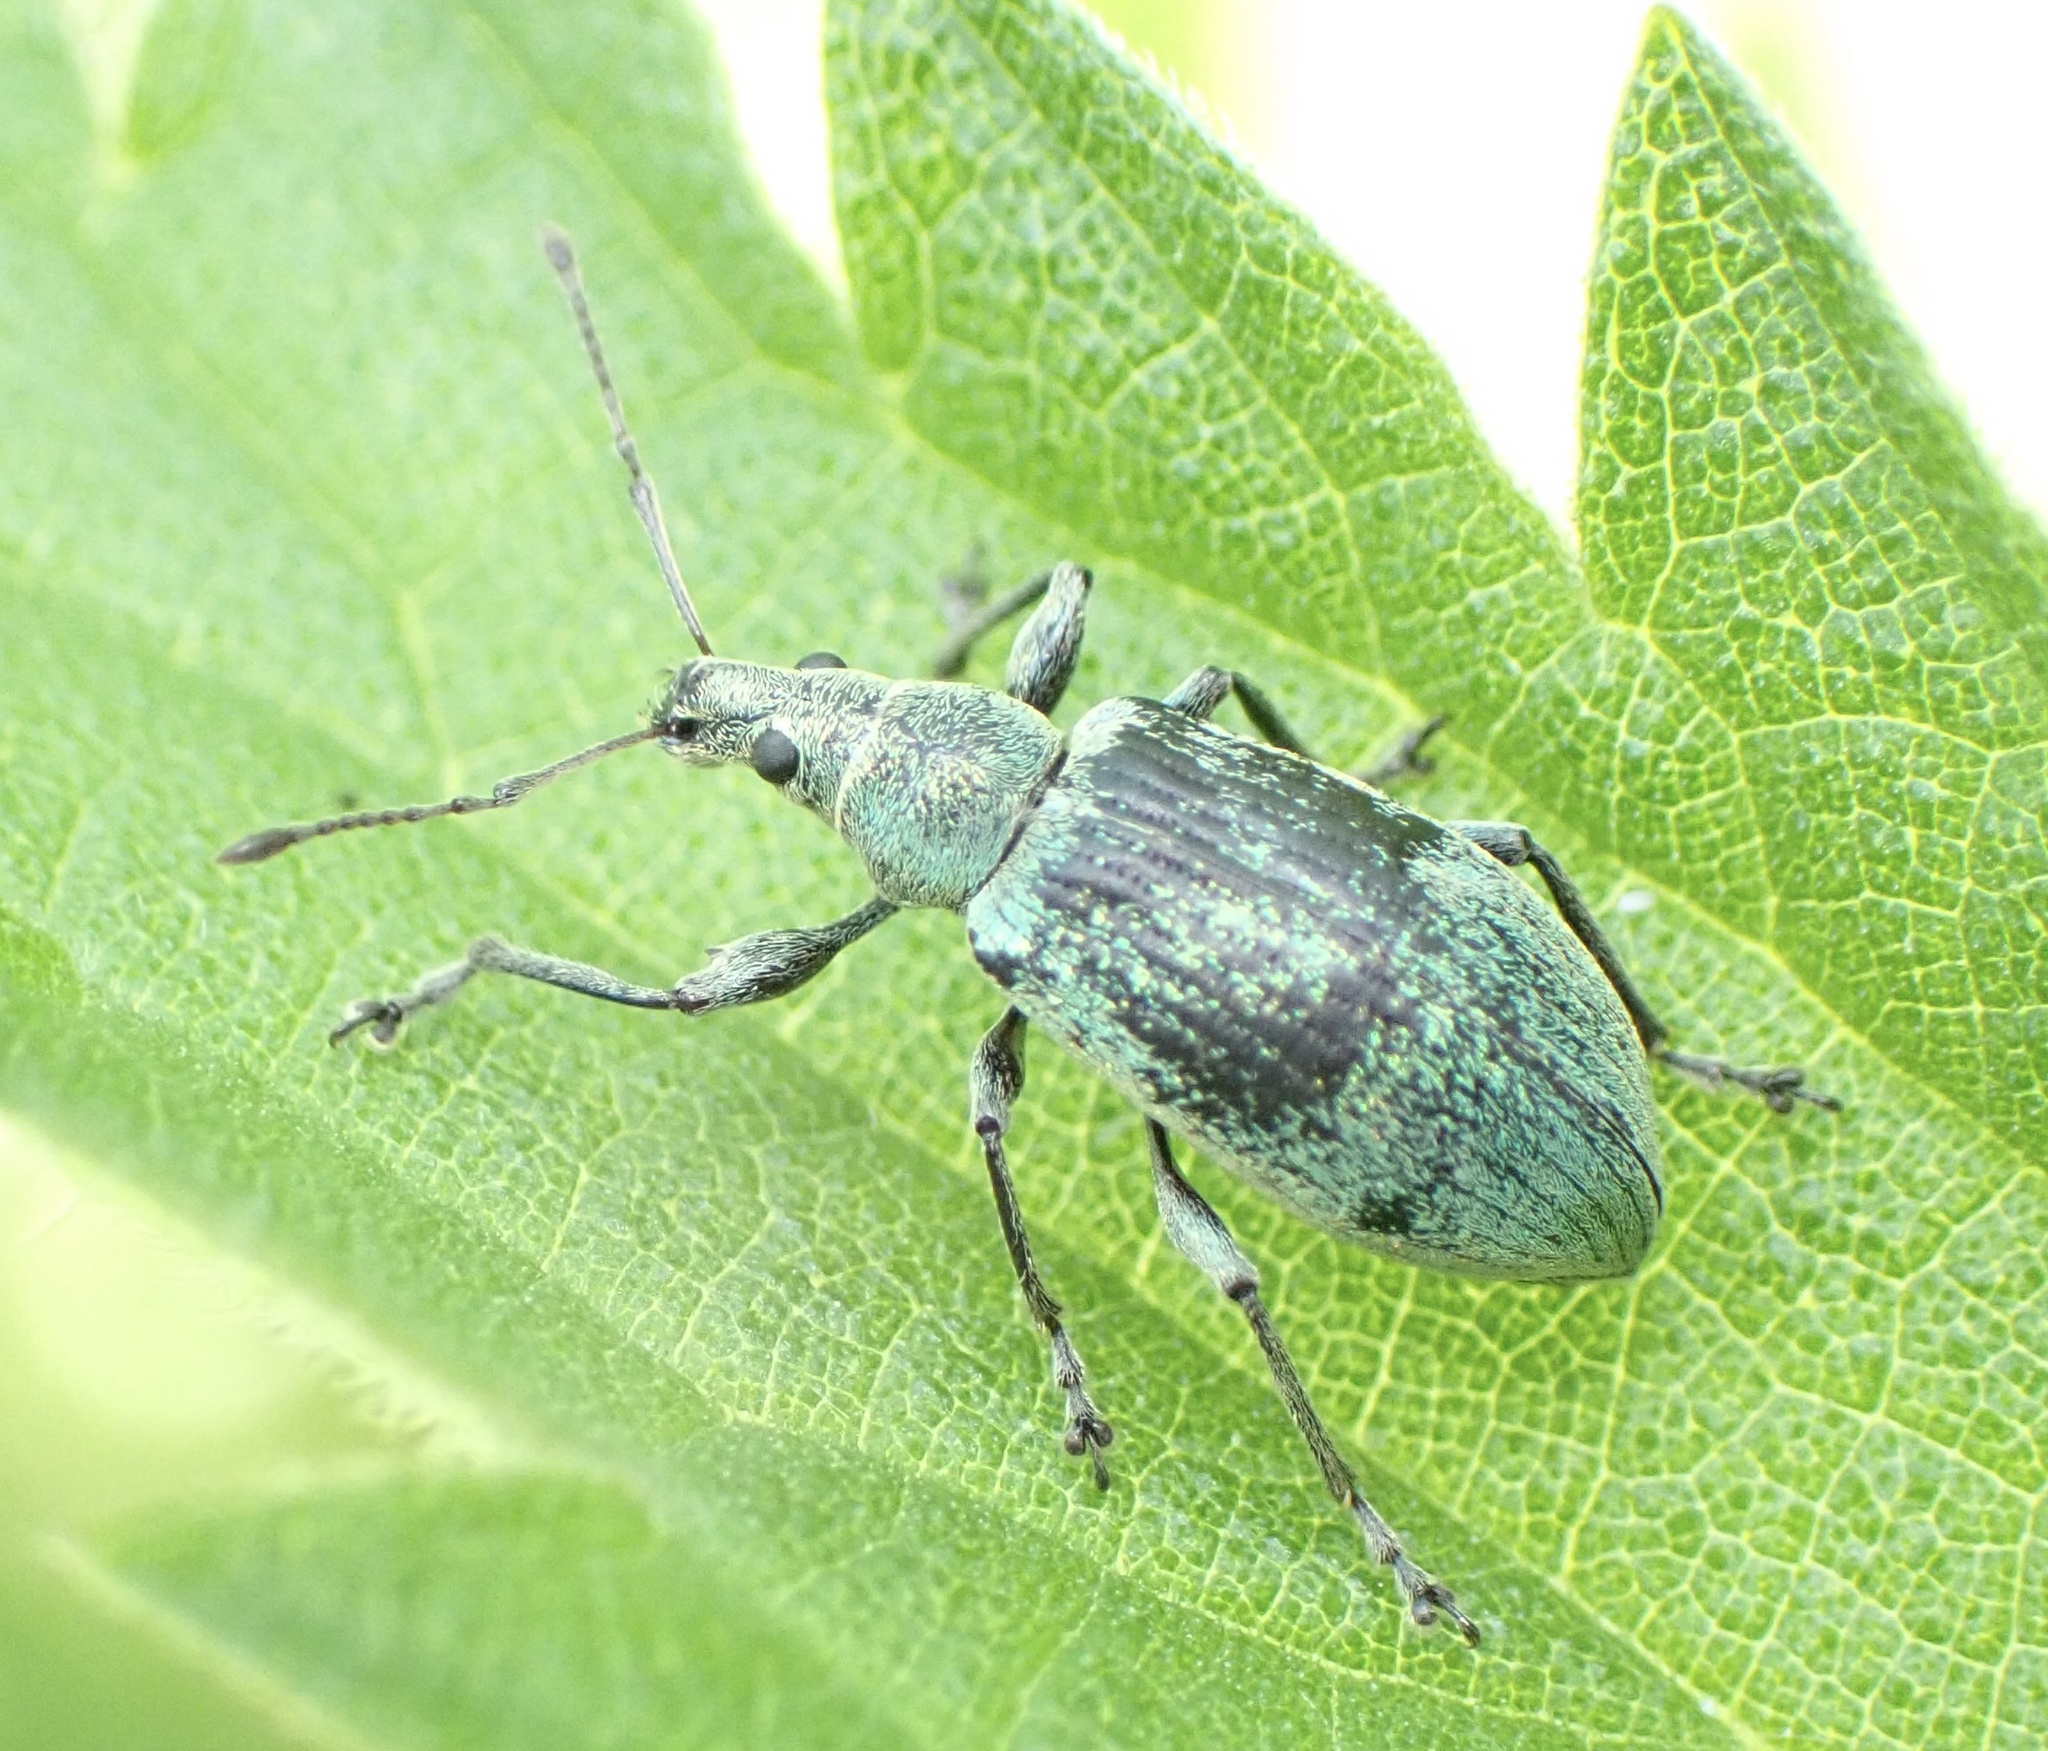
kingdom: Animalia
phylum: Arthropoda
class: Insecta
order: Coleoptera
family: Curculionidae
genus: Phyllobius
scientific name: Phyllobius pomaceus
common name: Green nettle weevil
